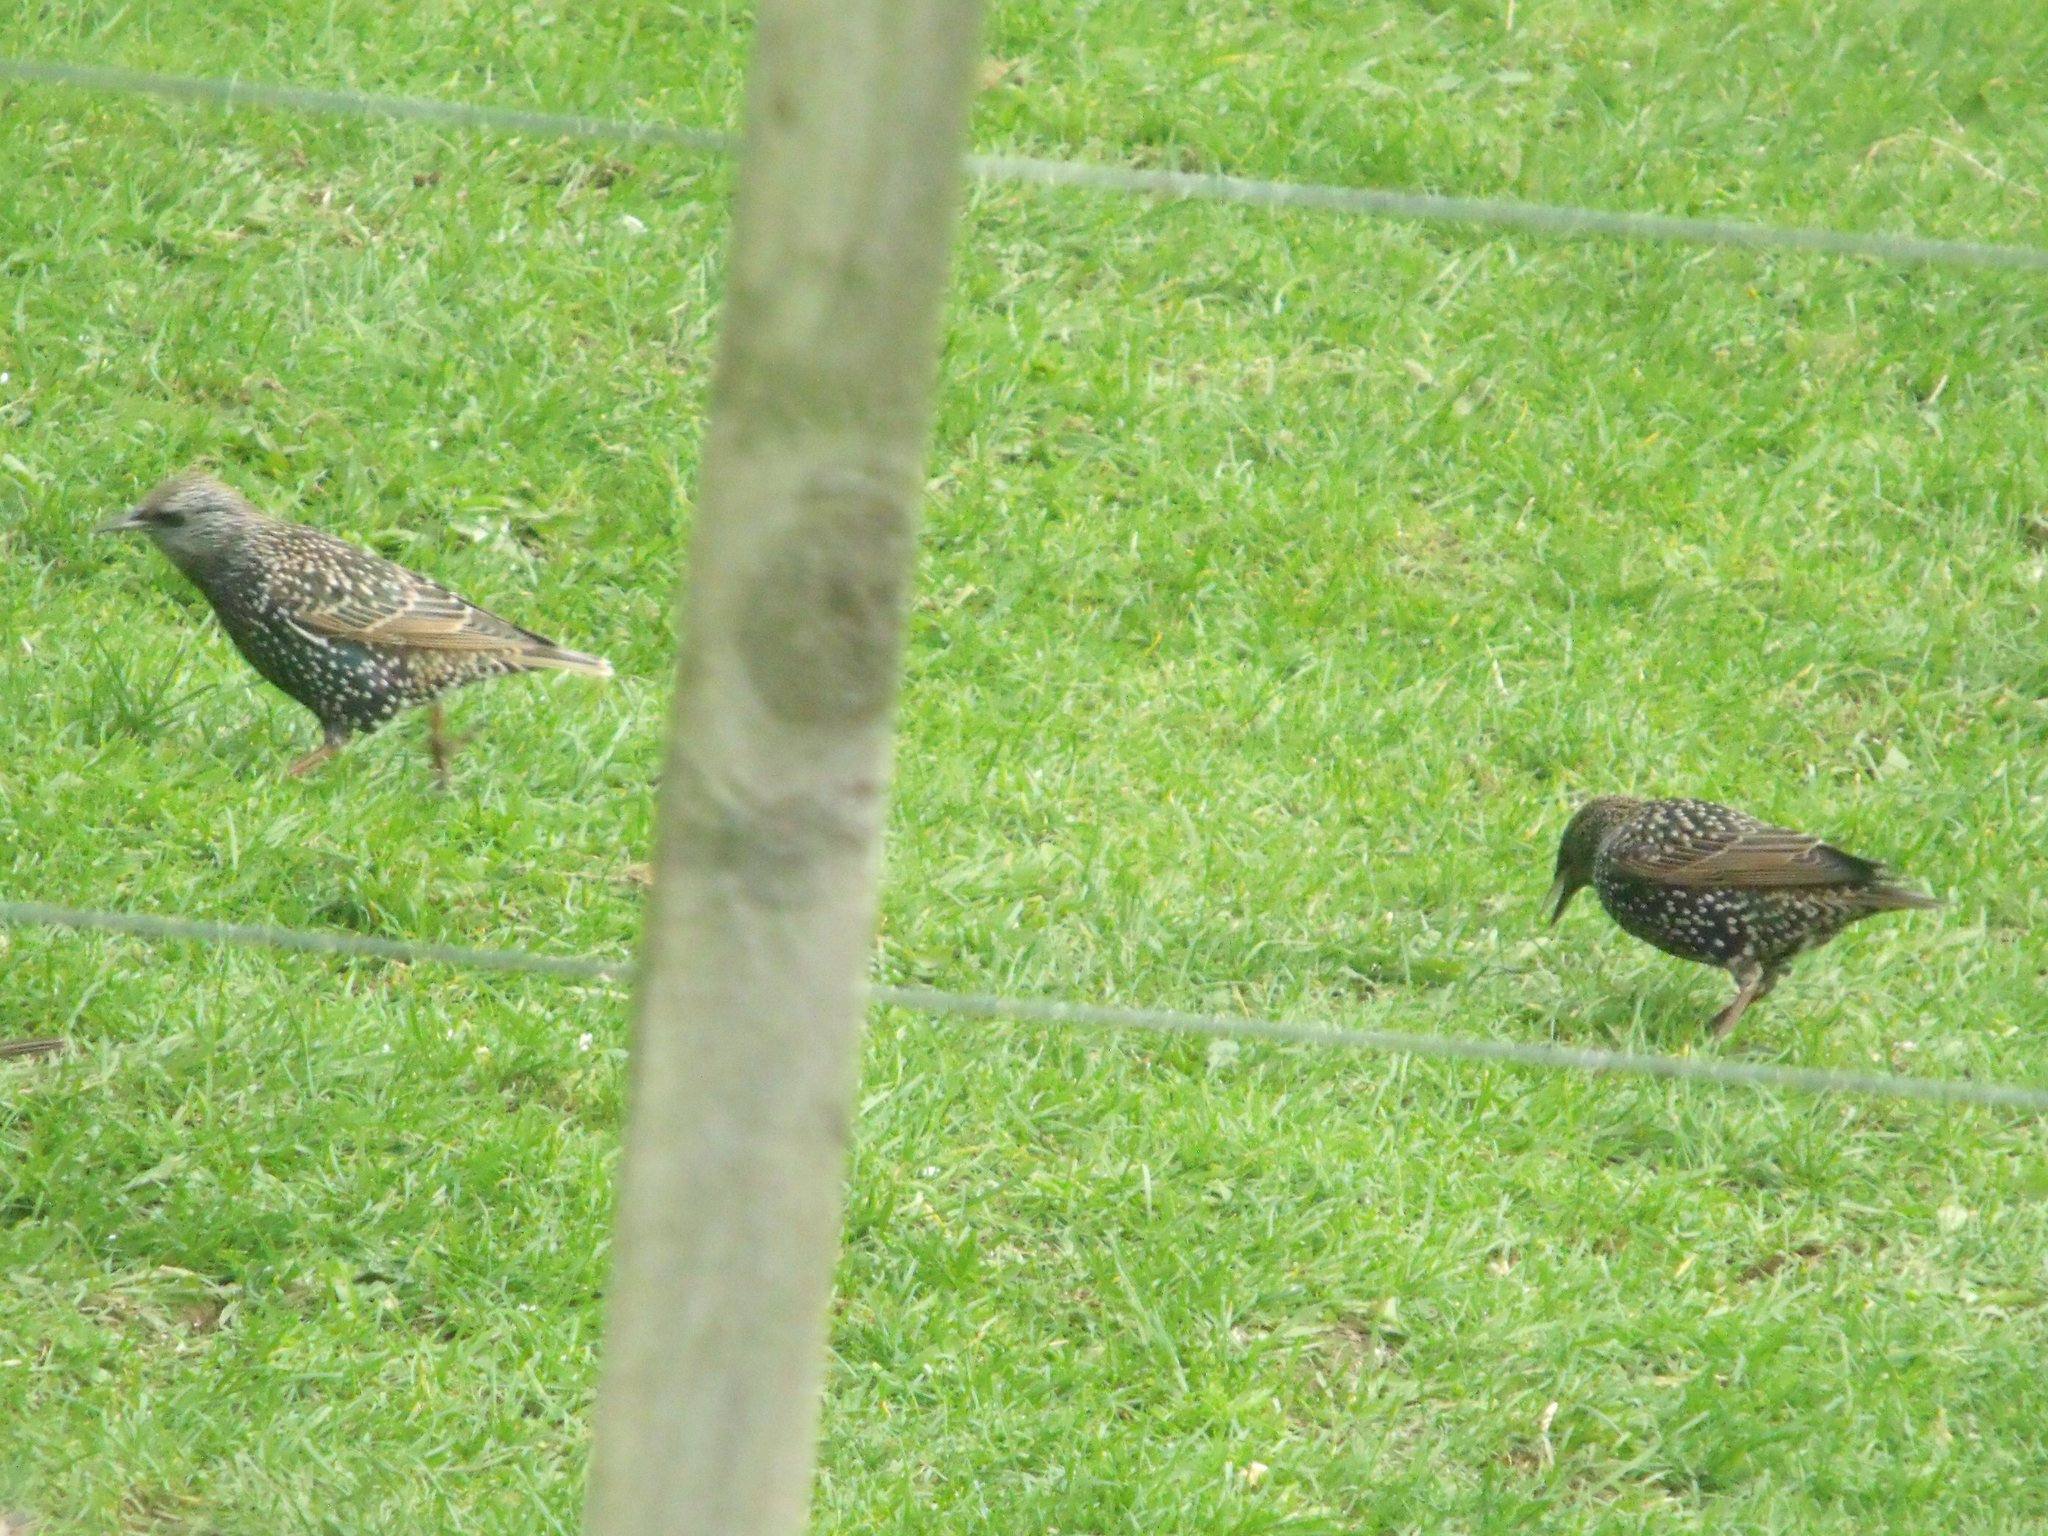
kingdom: Animalia
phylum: Chordata
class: Aves
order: Passeriformes
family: Sturnidae
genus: Sturnus
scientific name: Sturnus vulgaris
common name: Common starling
